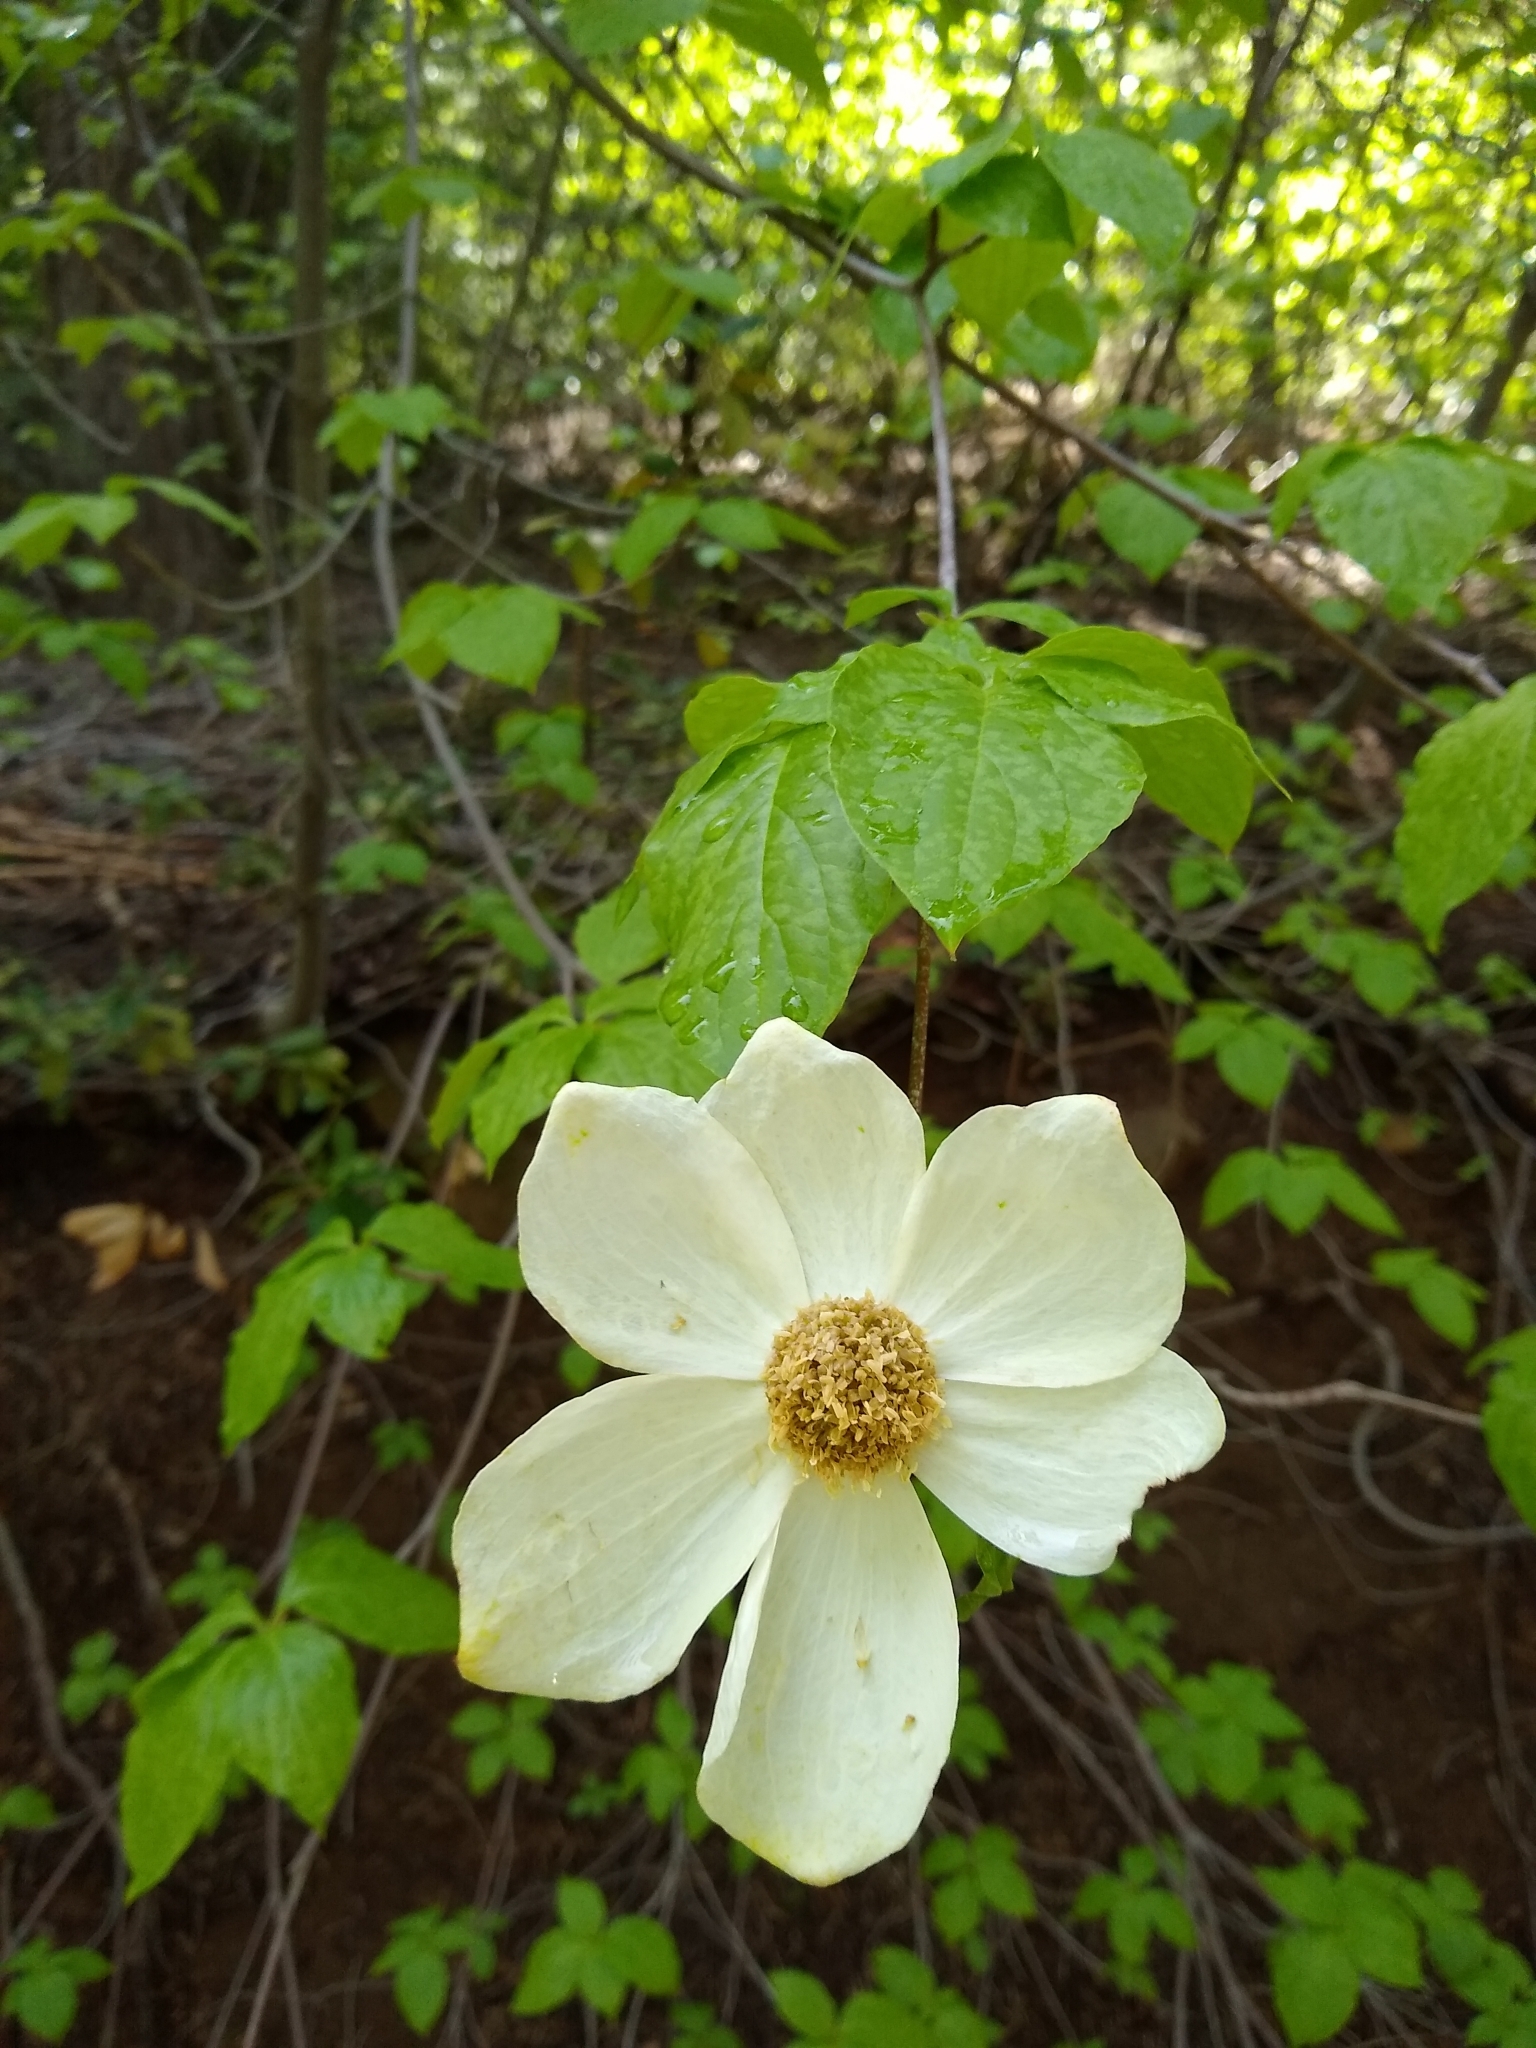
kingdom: Plantae
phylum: Tracheophyta
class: Magnoliopsida
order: Cornales
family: Cornaceae
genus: Cornus
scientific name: Cornus nuttallii
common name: Pacific dogwood
